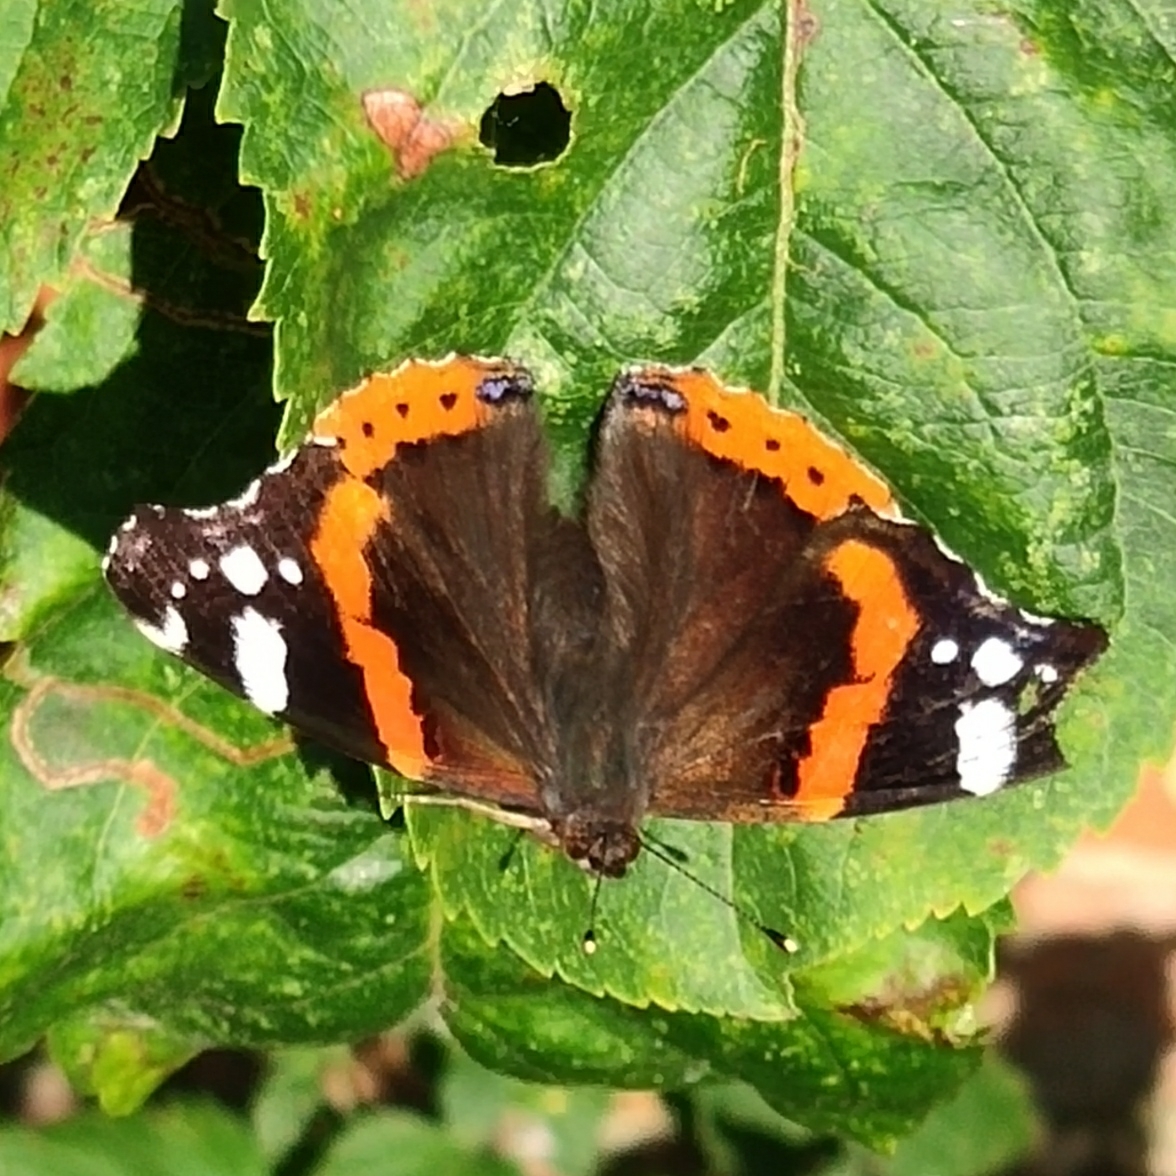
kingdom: Animalia
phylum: Arthropoda
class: Insecta
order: Lepidoptera
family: Nymphalidae
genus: Vanessa
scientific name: Vanessa atalanta
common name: Red admiral
